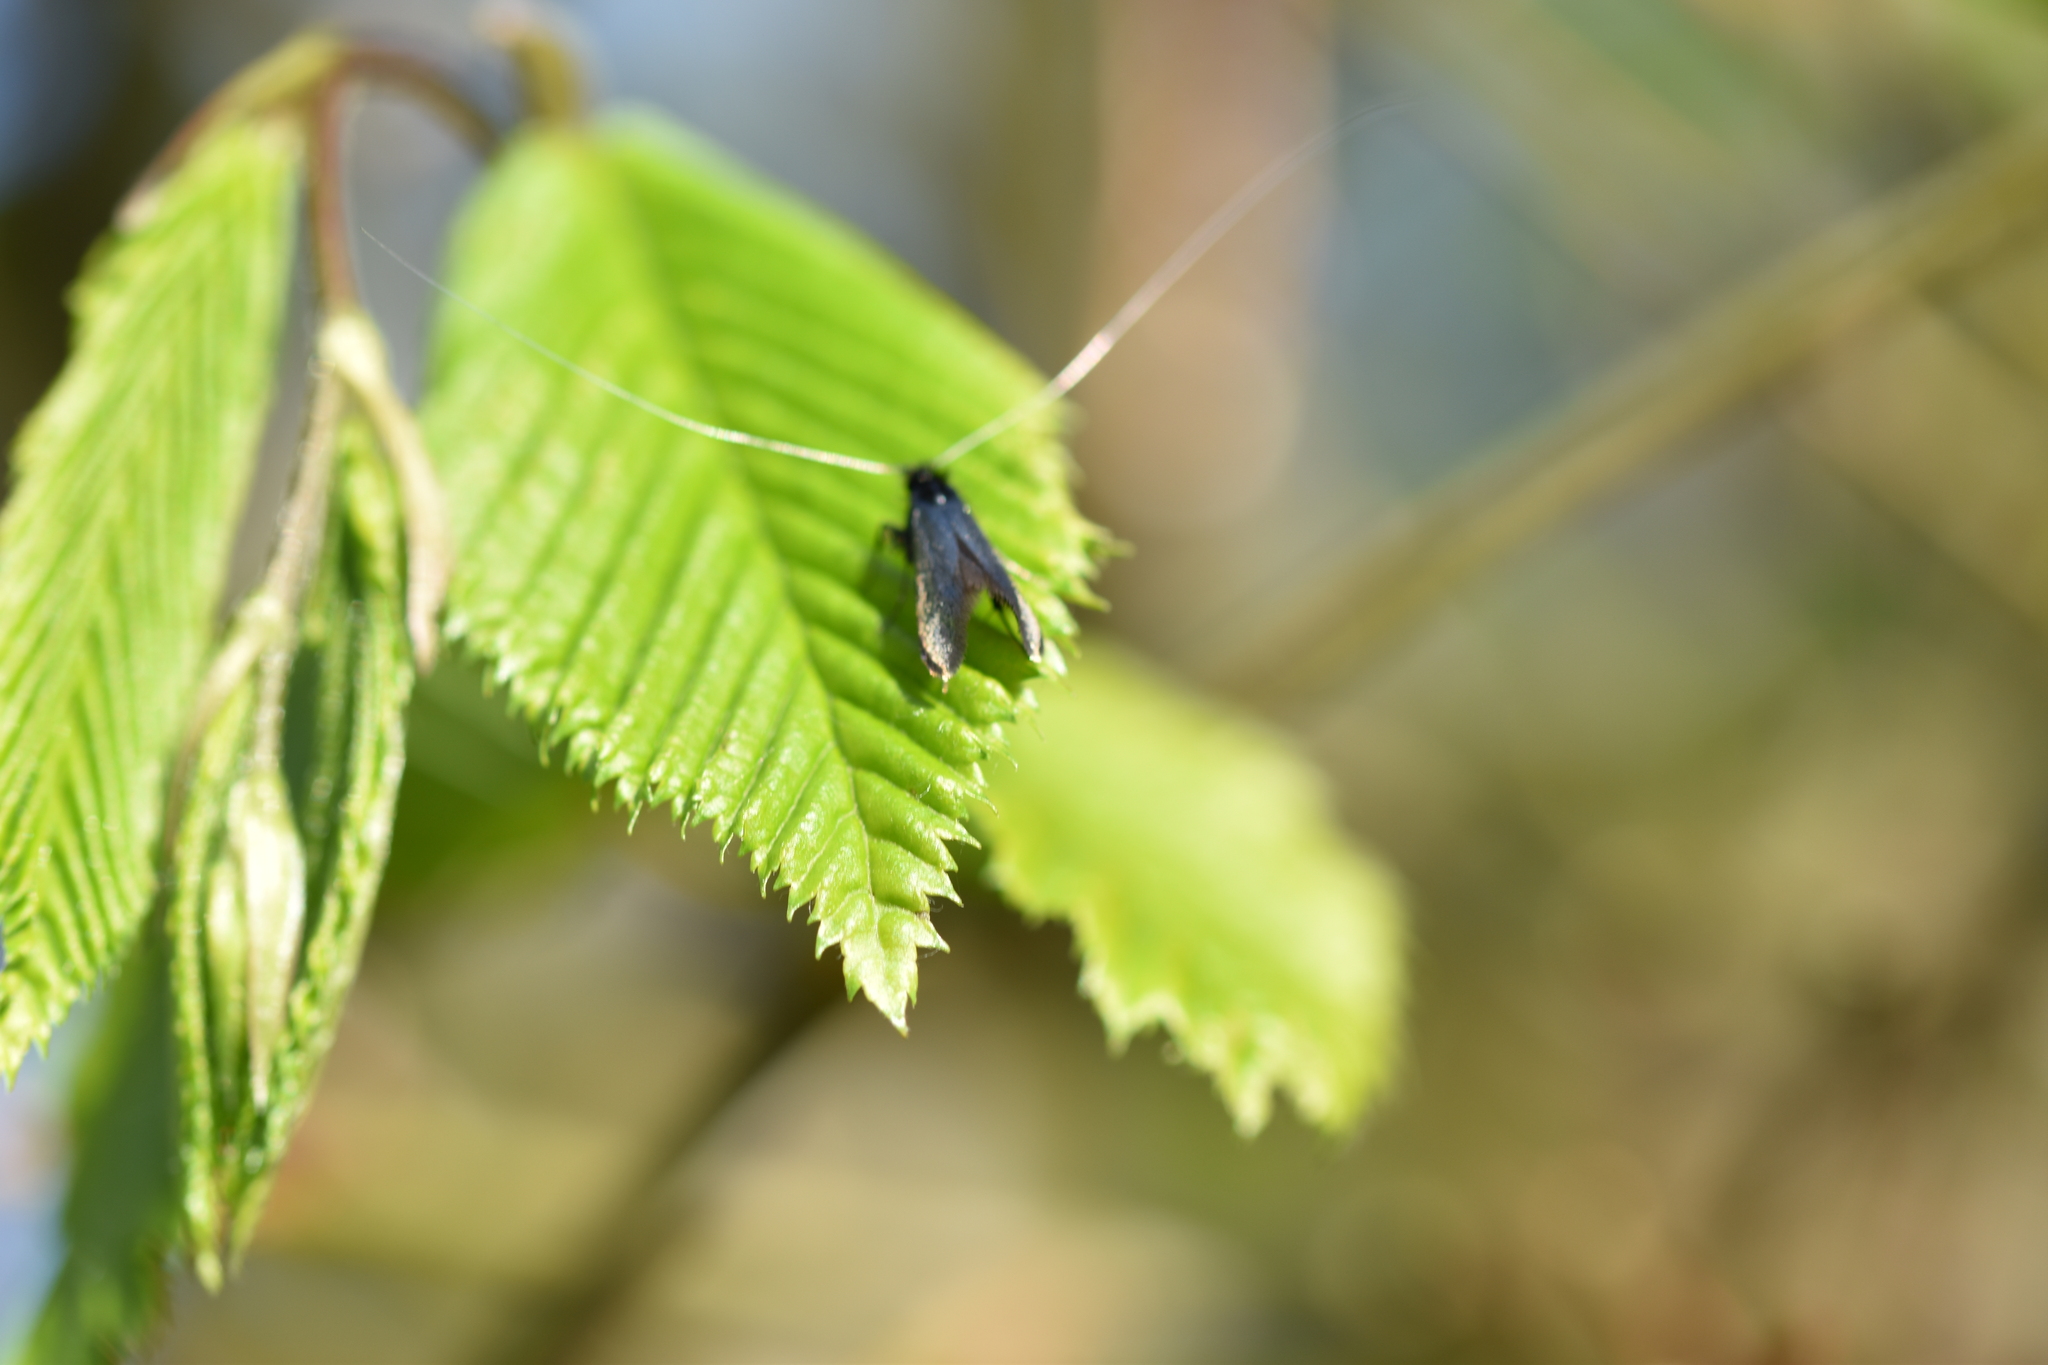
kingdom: Animalia
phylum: Arthropoda
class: Insecta
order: Lepidoptera
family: Adelidae
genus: Adela
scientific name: Adela viridella
